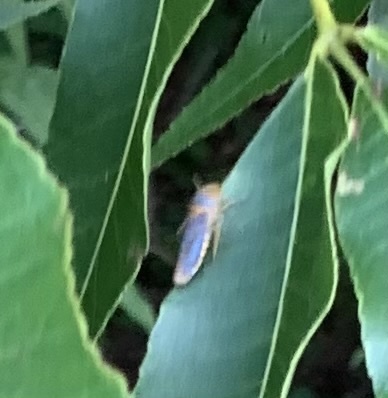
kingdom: Animalia
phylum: Arthropoda
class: Insecta
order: Hemiptera
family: Cicadellidae
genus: Oncometopia
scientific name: Oncometopia orbona
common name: Broad-headed sharpshooter
